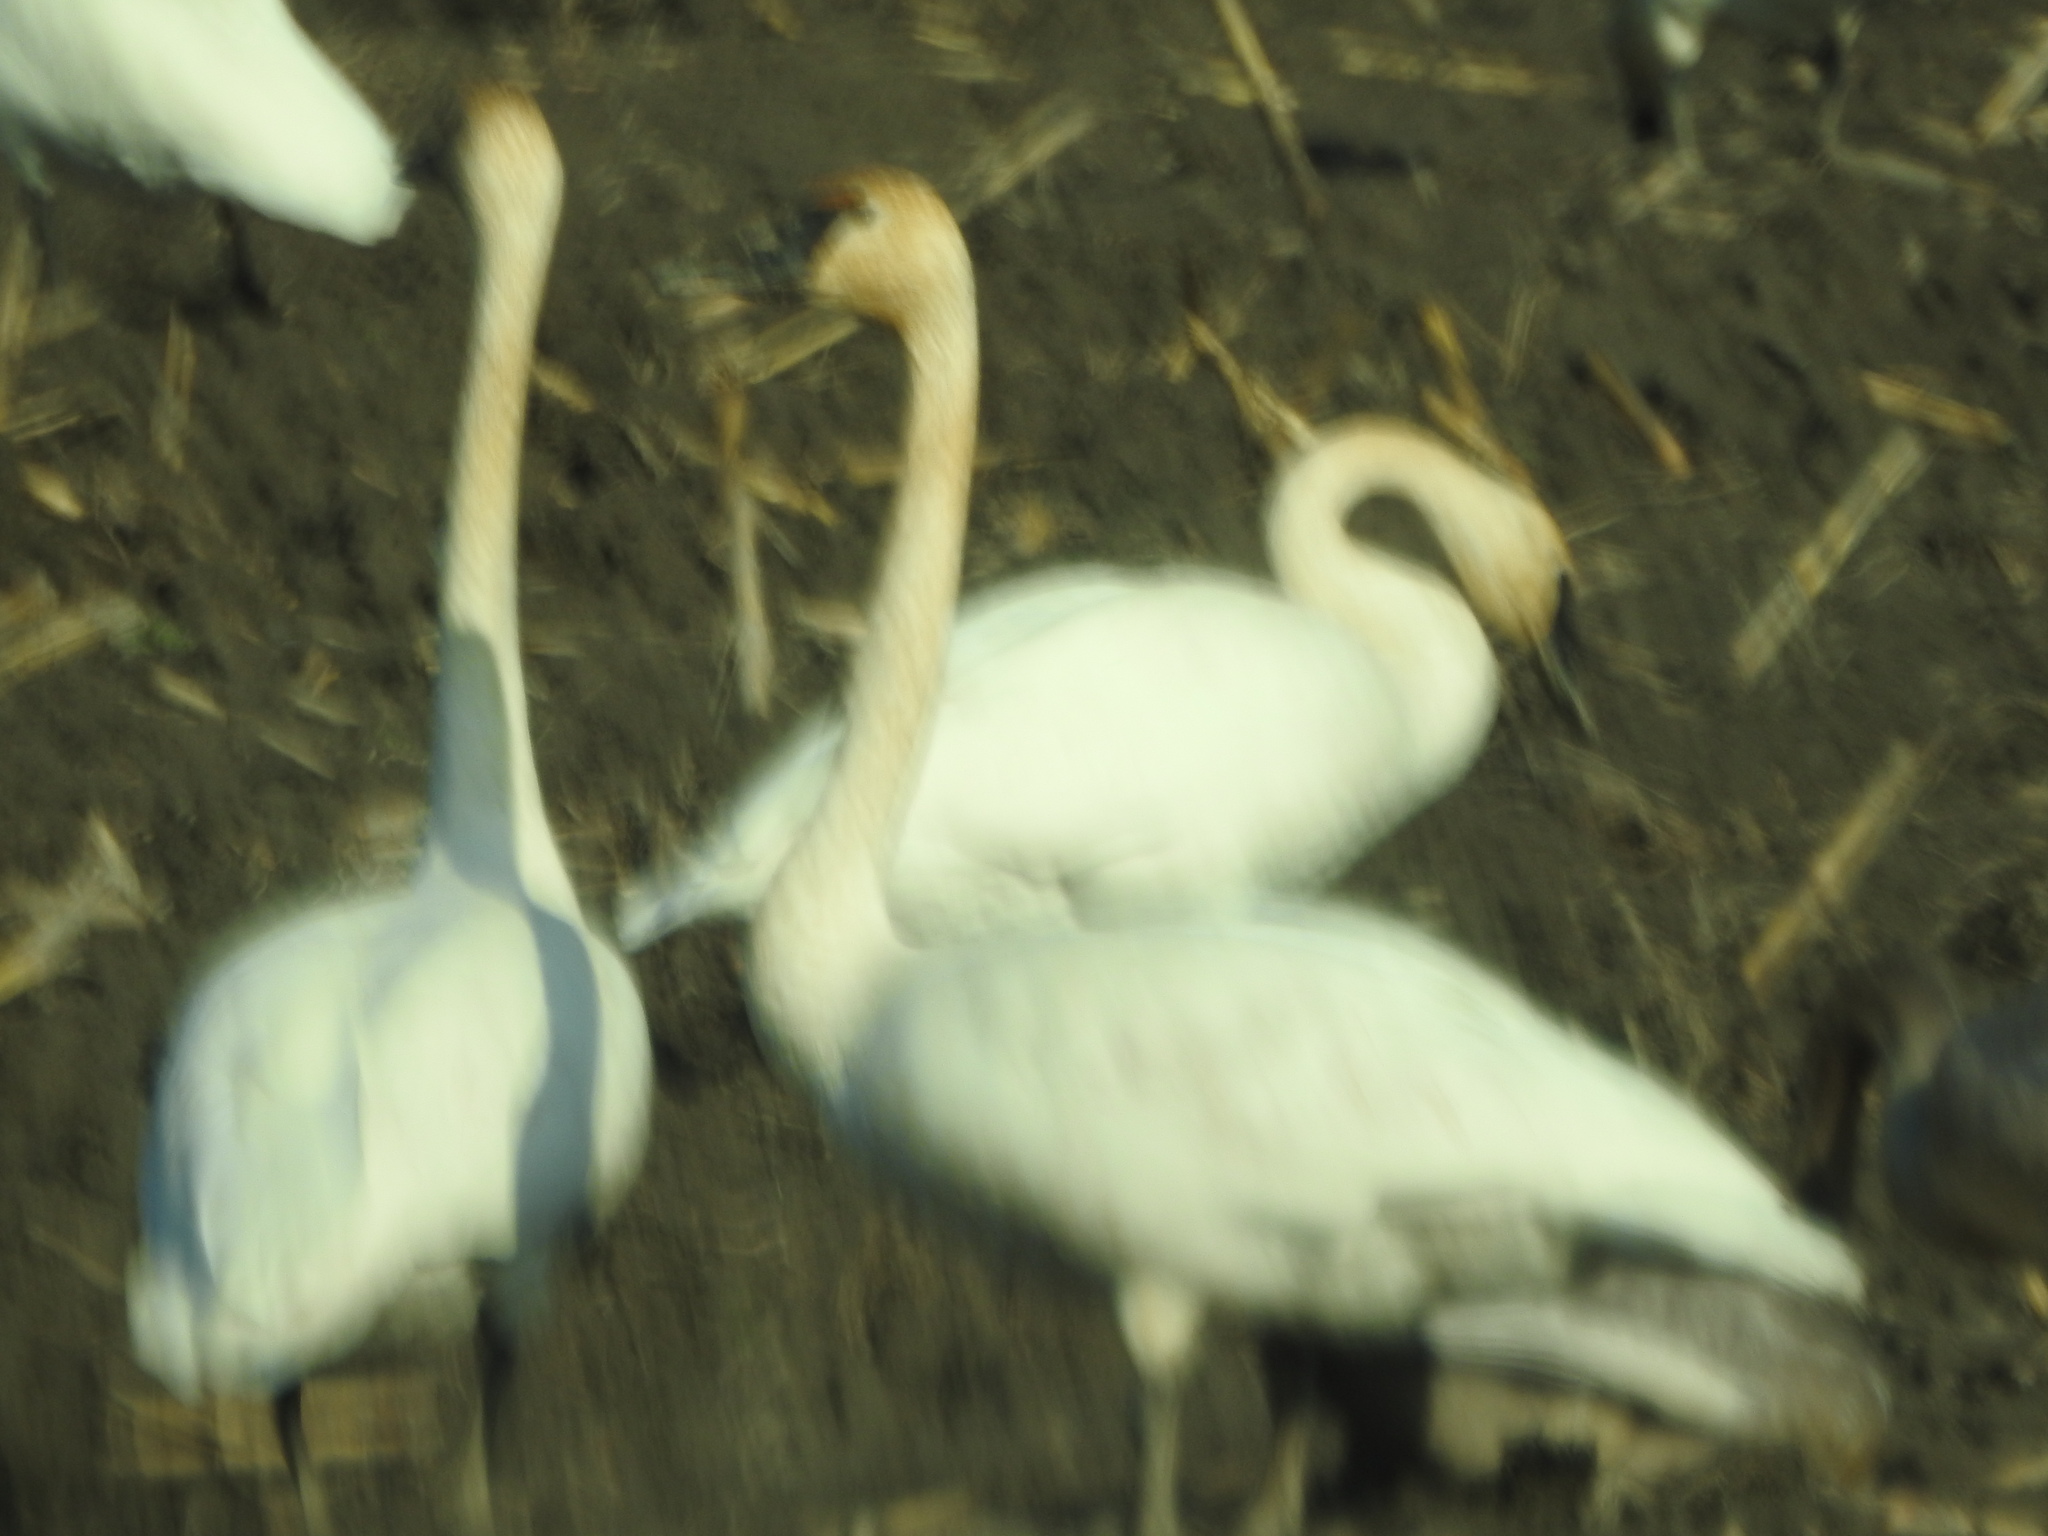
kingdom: Animalia
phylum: Chordata
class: Aves
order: Anseriformes
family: Anatidae
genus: Cygnus
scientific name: Cygnus buccinator
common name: Trumpeter swan
